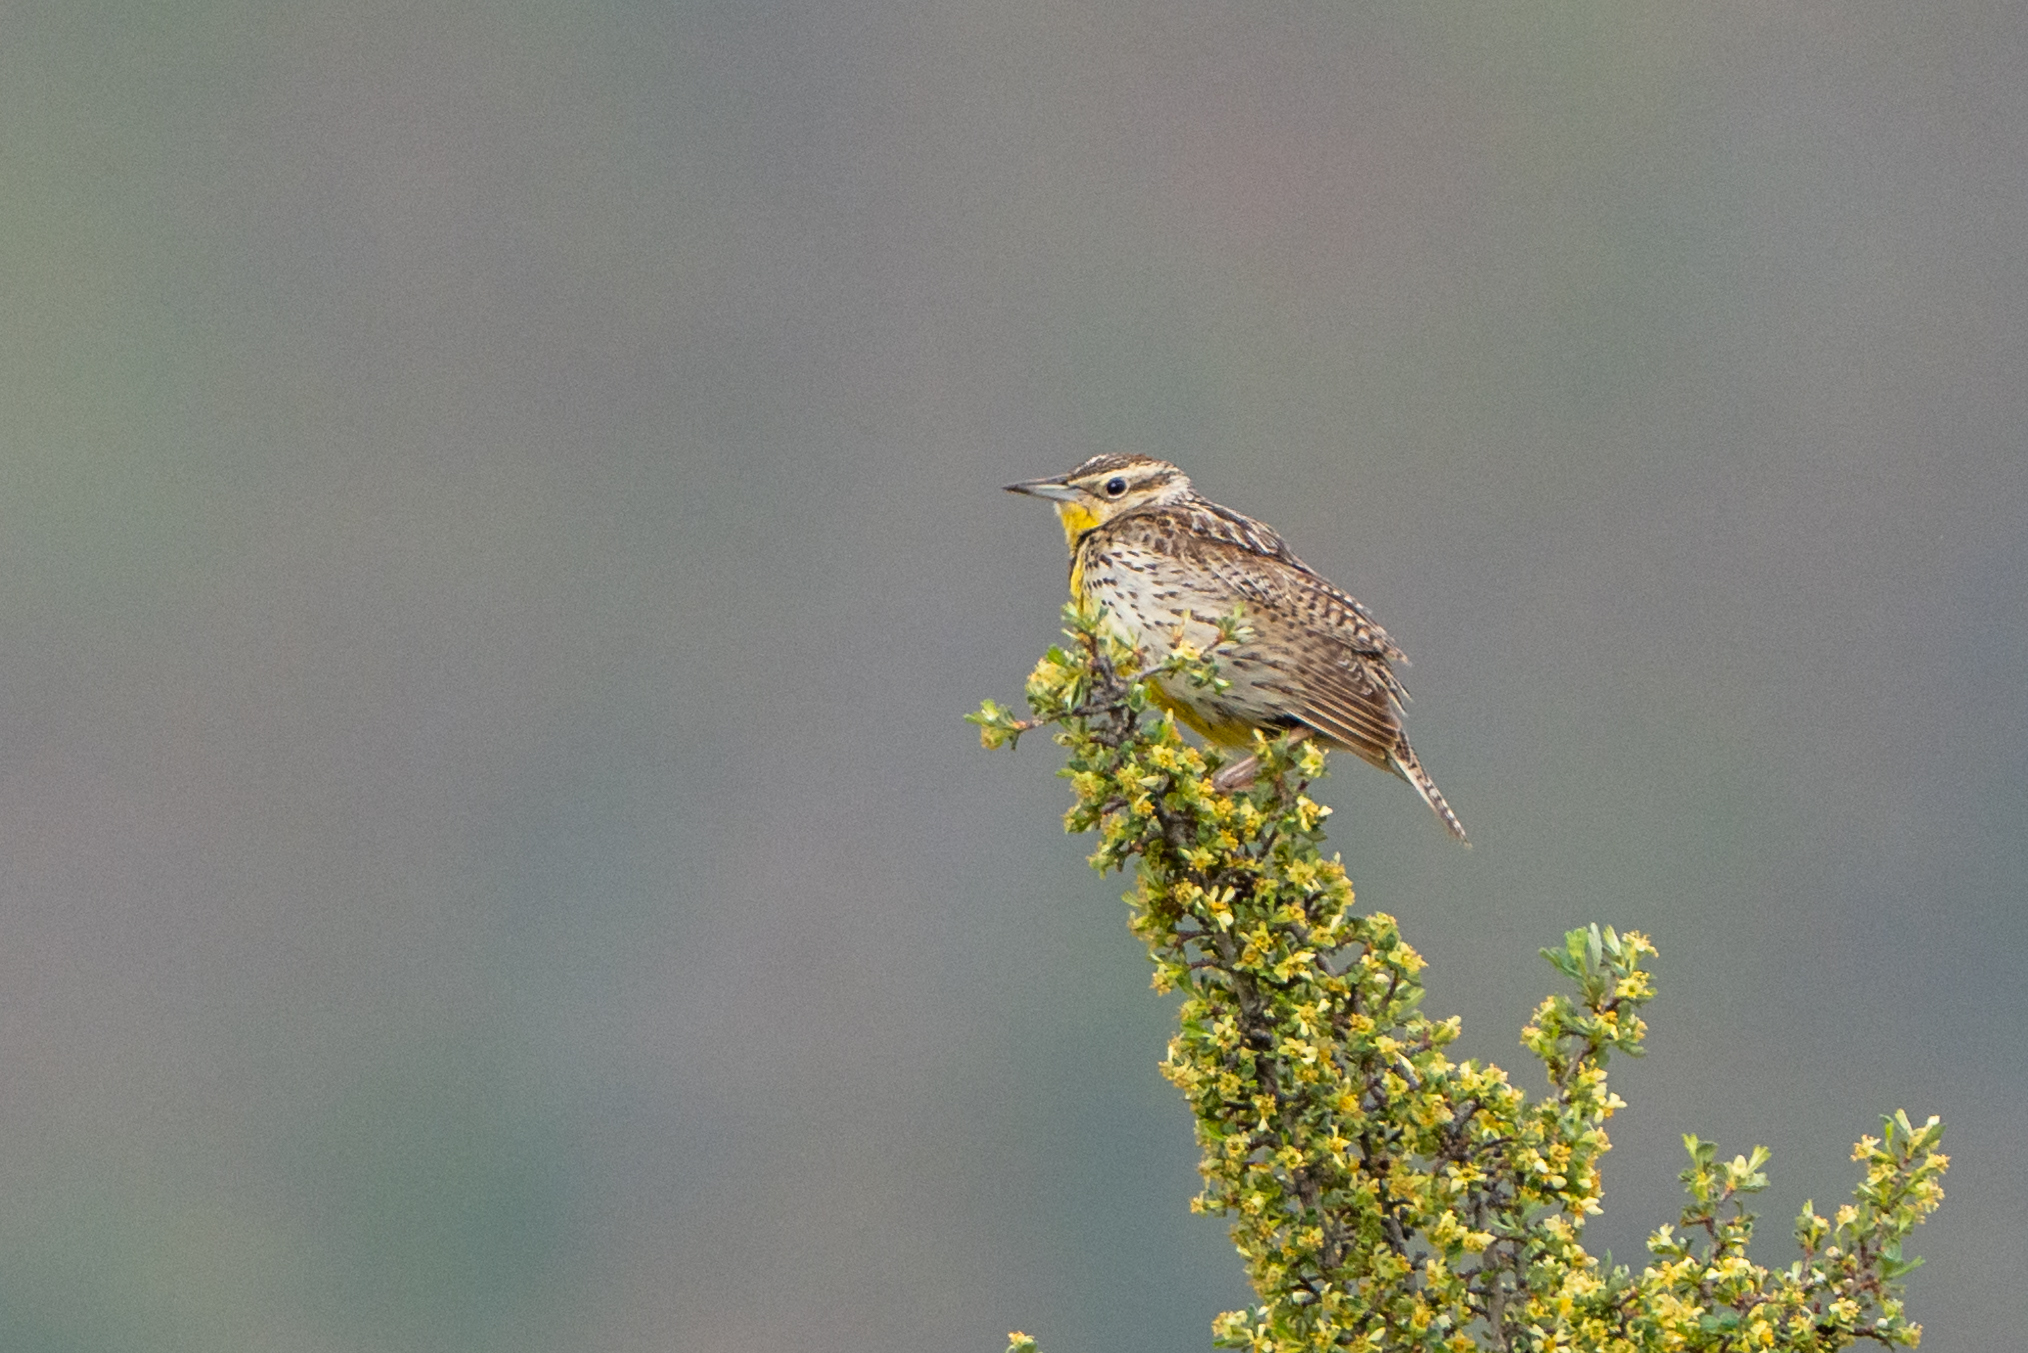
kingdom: Animalia
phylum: Chordata
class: Aves
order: Passeriformes
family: Icteridae
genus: Sturnella
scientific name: Sturnella neglecta
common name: Western meadowlark
